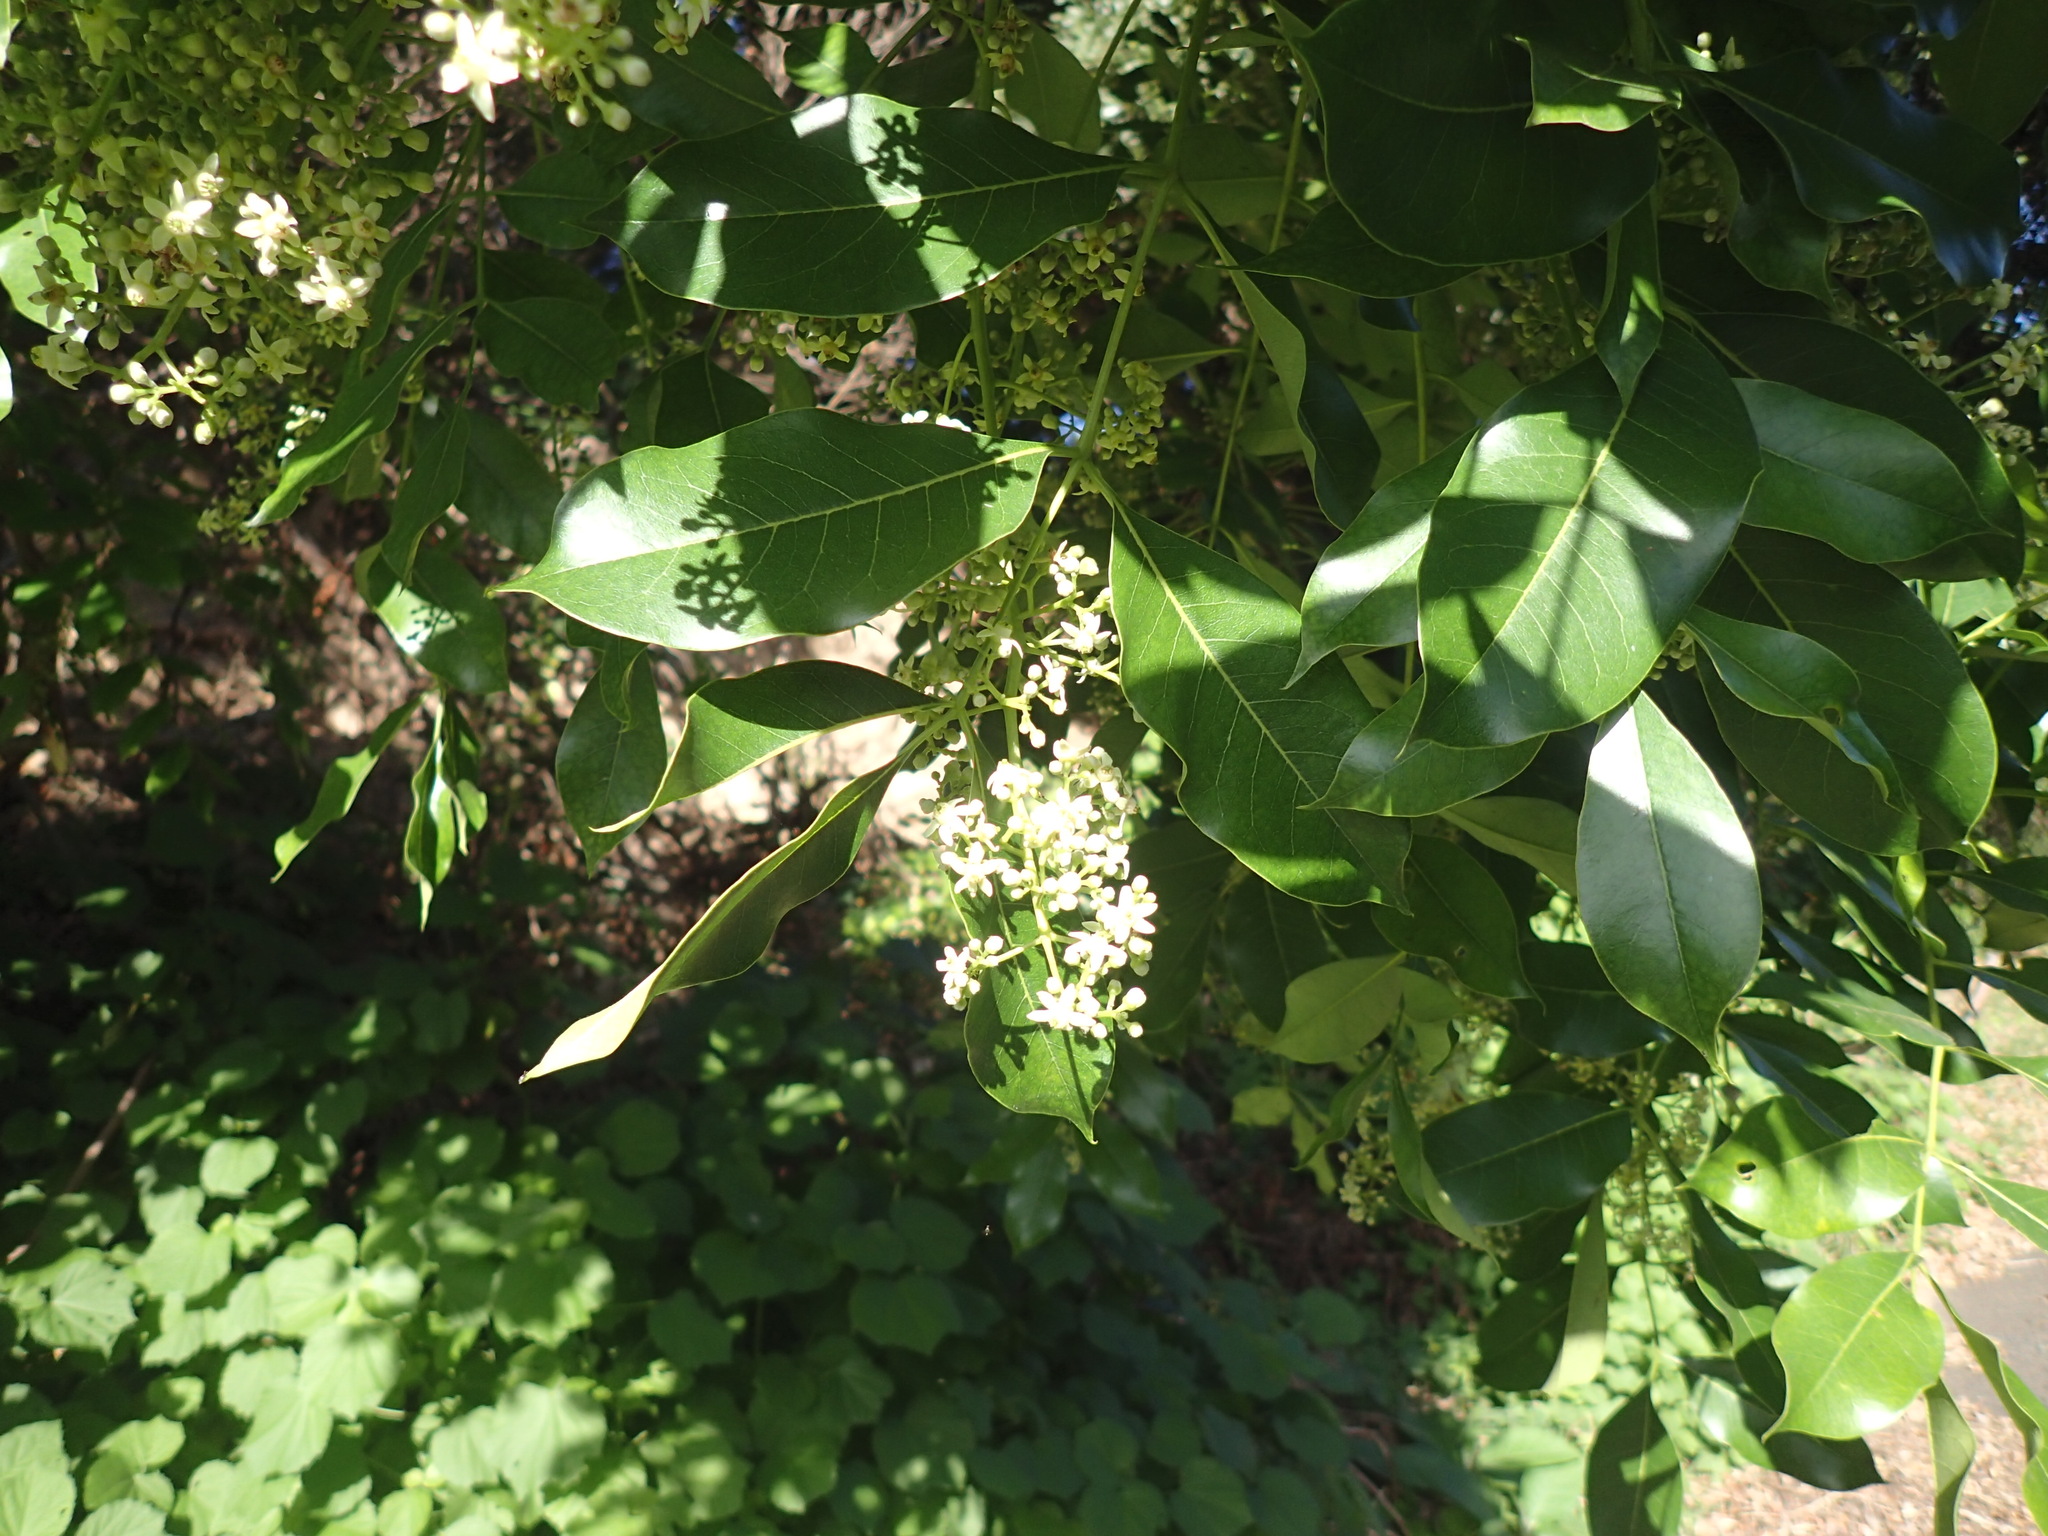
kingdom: Plantae
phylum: Tracheophyta
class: Magnoliopsida
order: Sapindales
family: Meliaceae
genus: Ekebergia
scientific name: Ekebergia capensis
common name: Cape-ash
